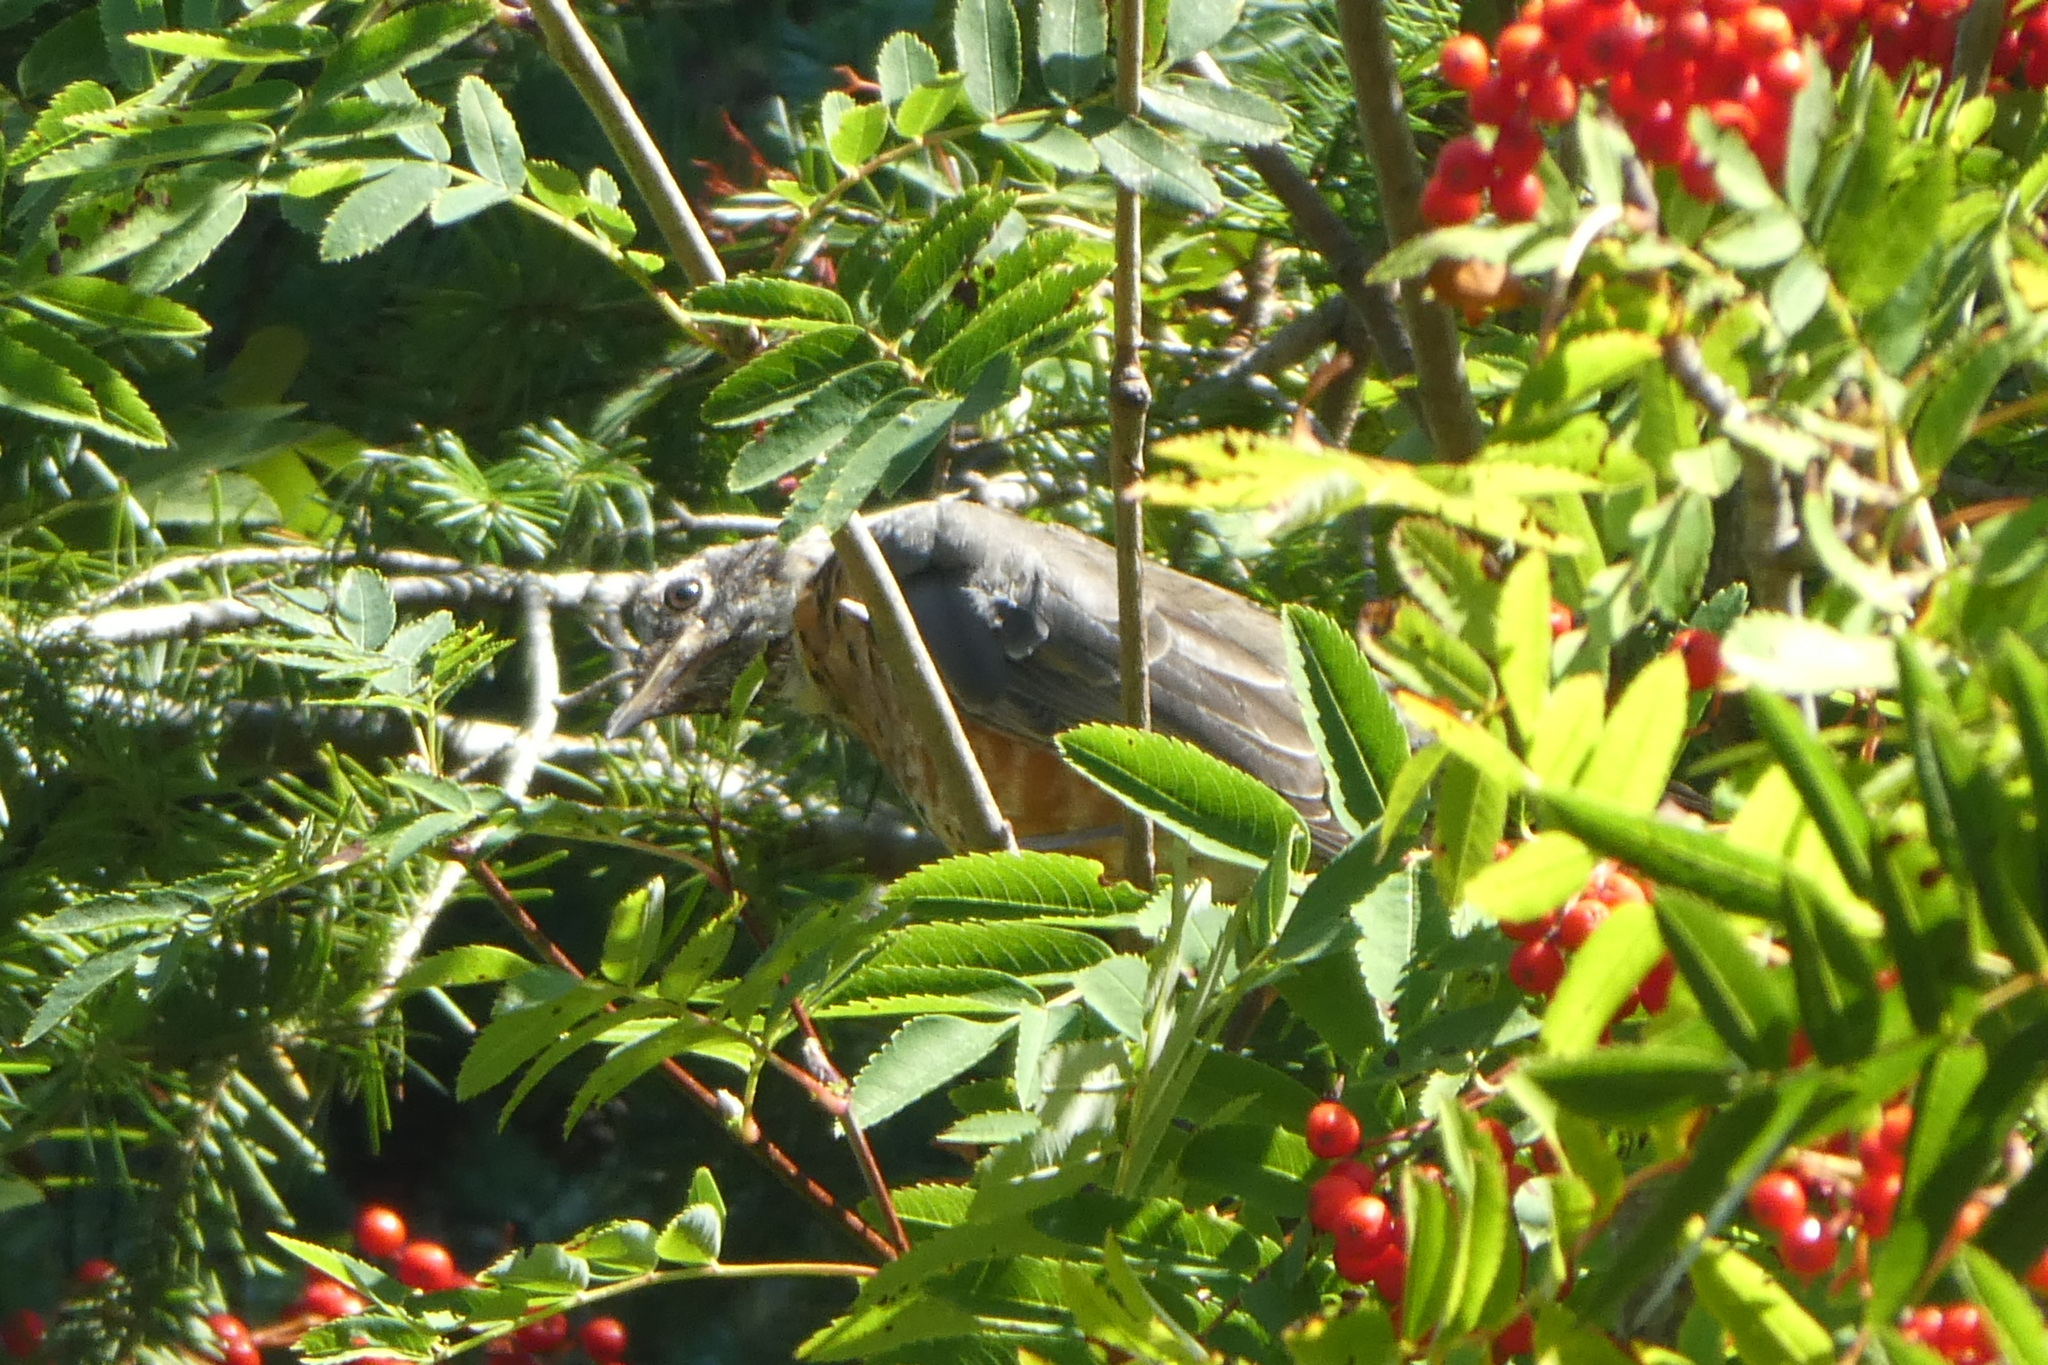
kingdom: Animalia
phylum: Chordata
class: Aves
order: Passeriformes
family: Turdidae
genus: Turdus
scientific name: Turdus migratorius
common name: American robin
